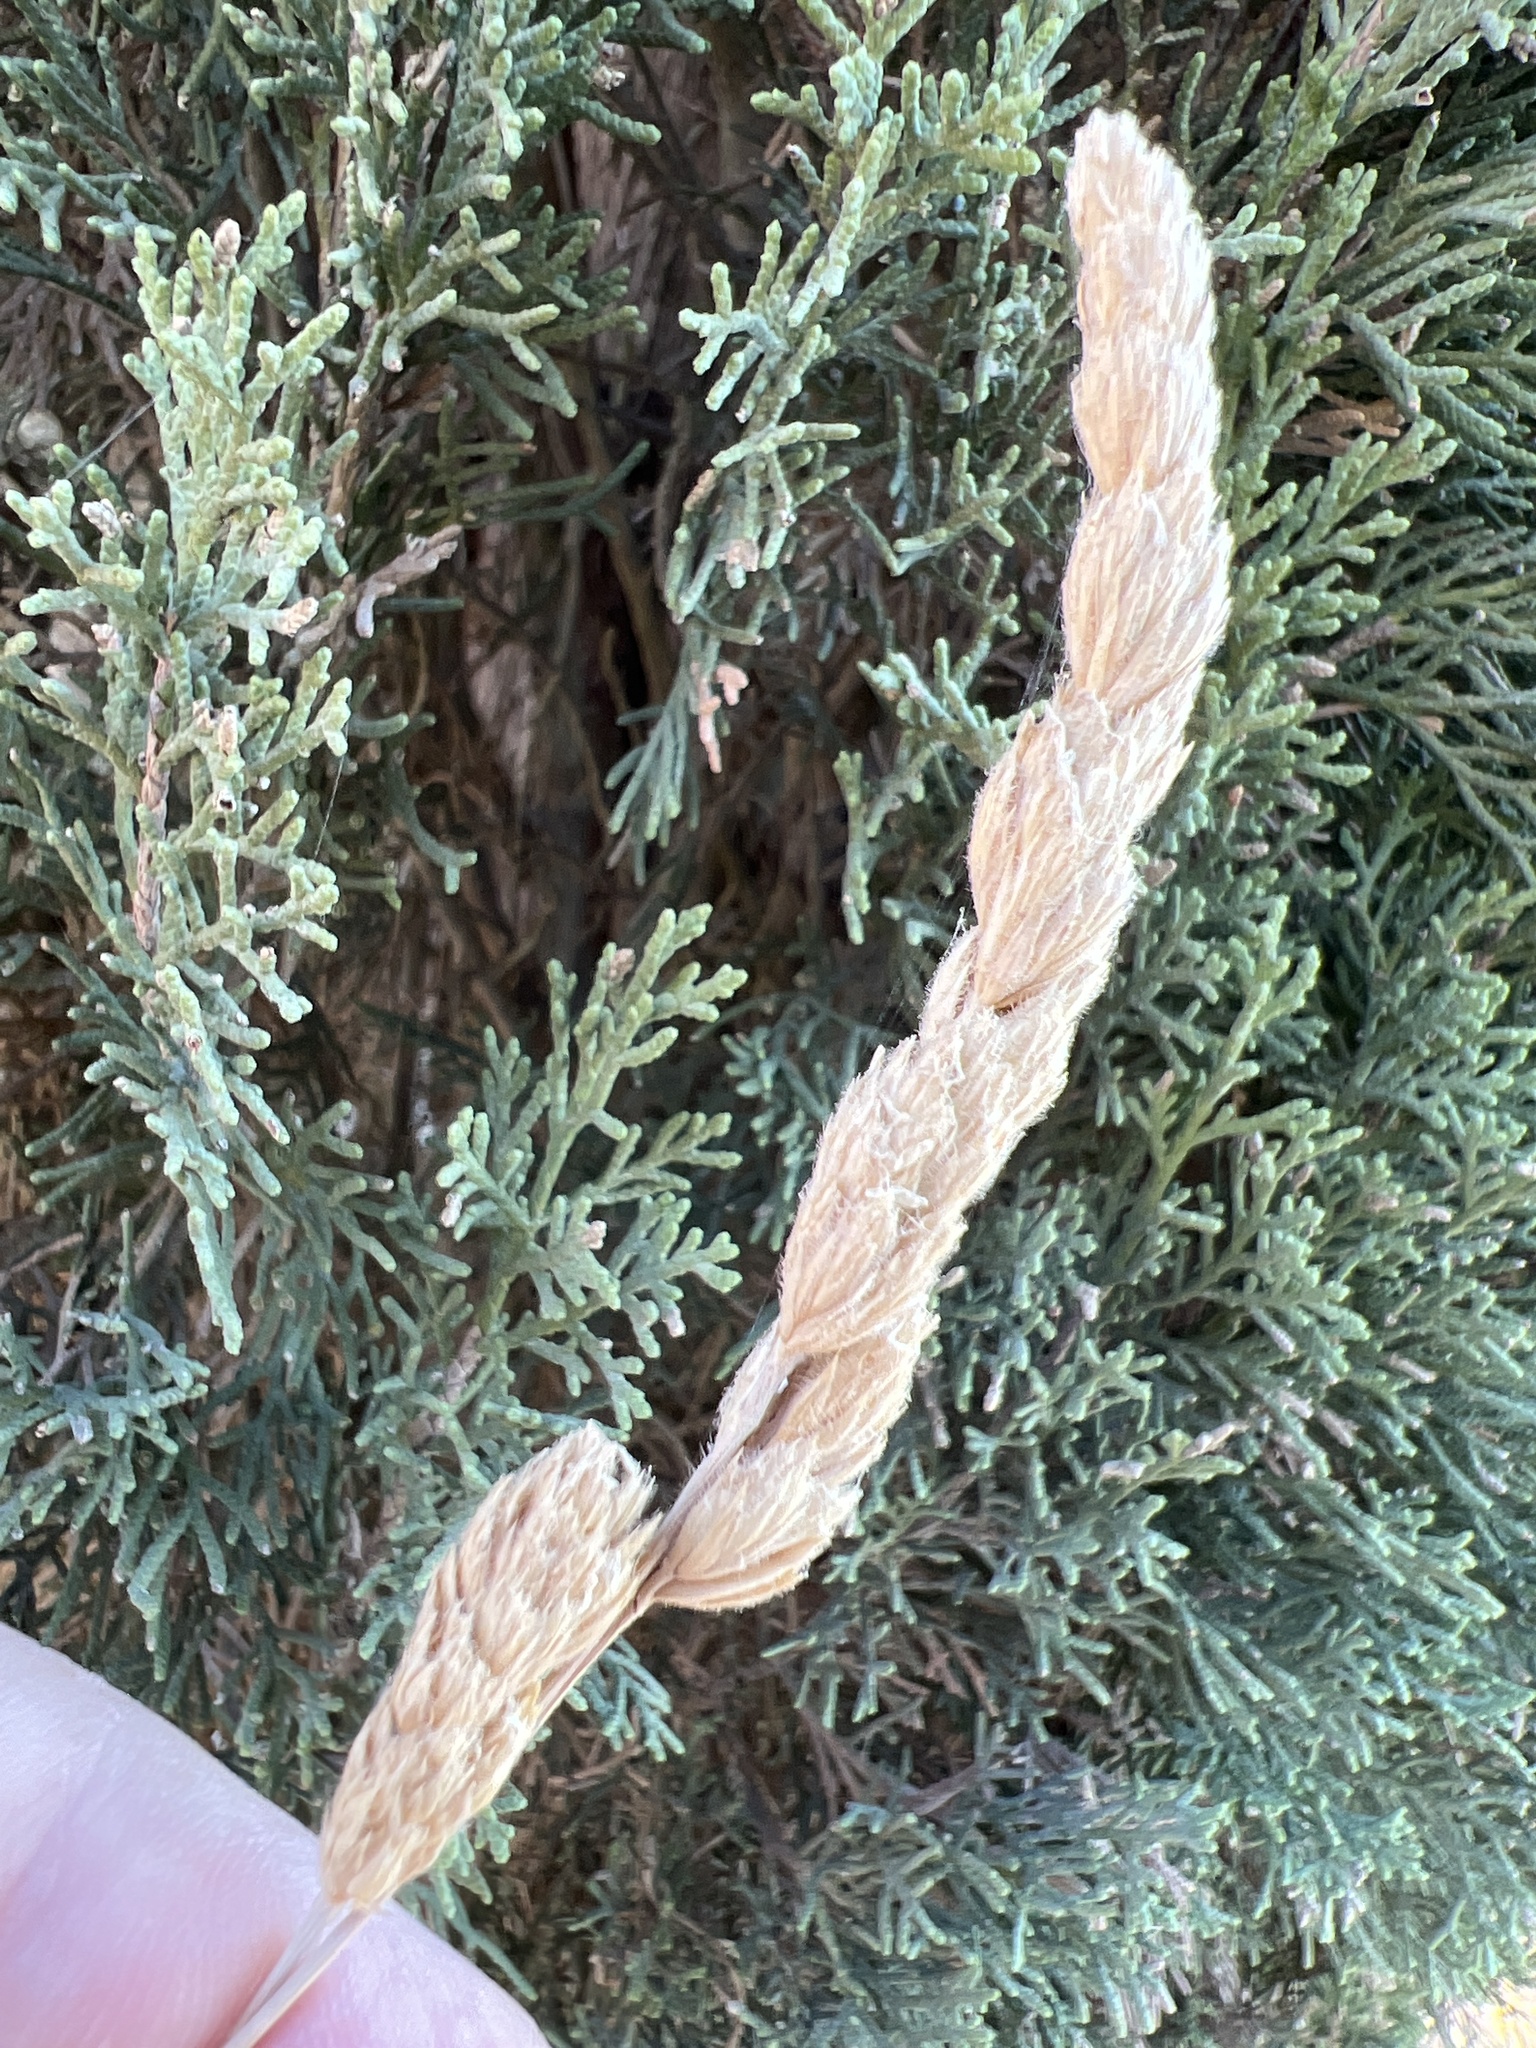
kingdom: Plantae
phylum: Tracheophyta
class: Liliopsida
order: Poales
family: Poaceae
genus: Dactylis
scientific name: Dactylis glomerata
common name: Orchardgrass
